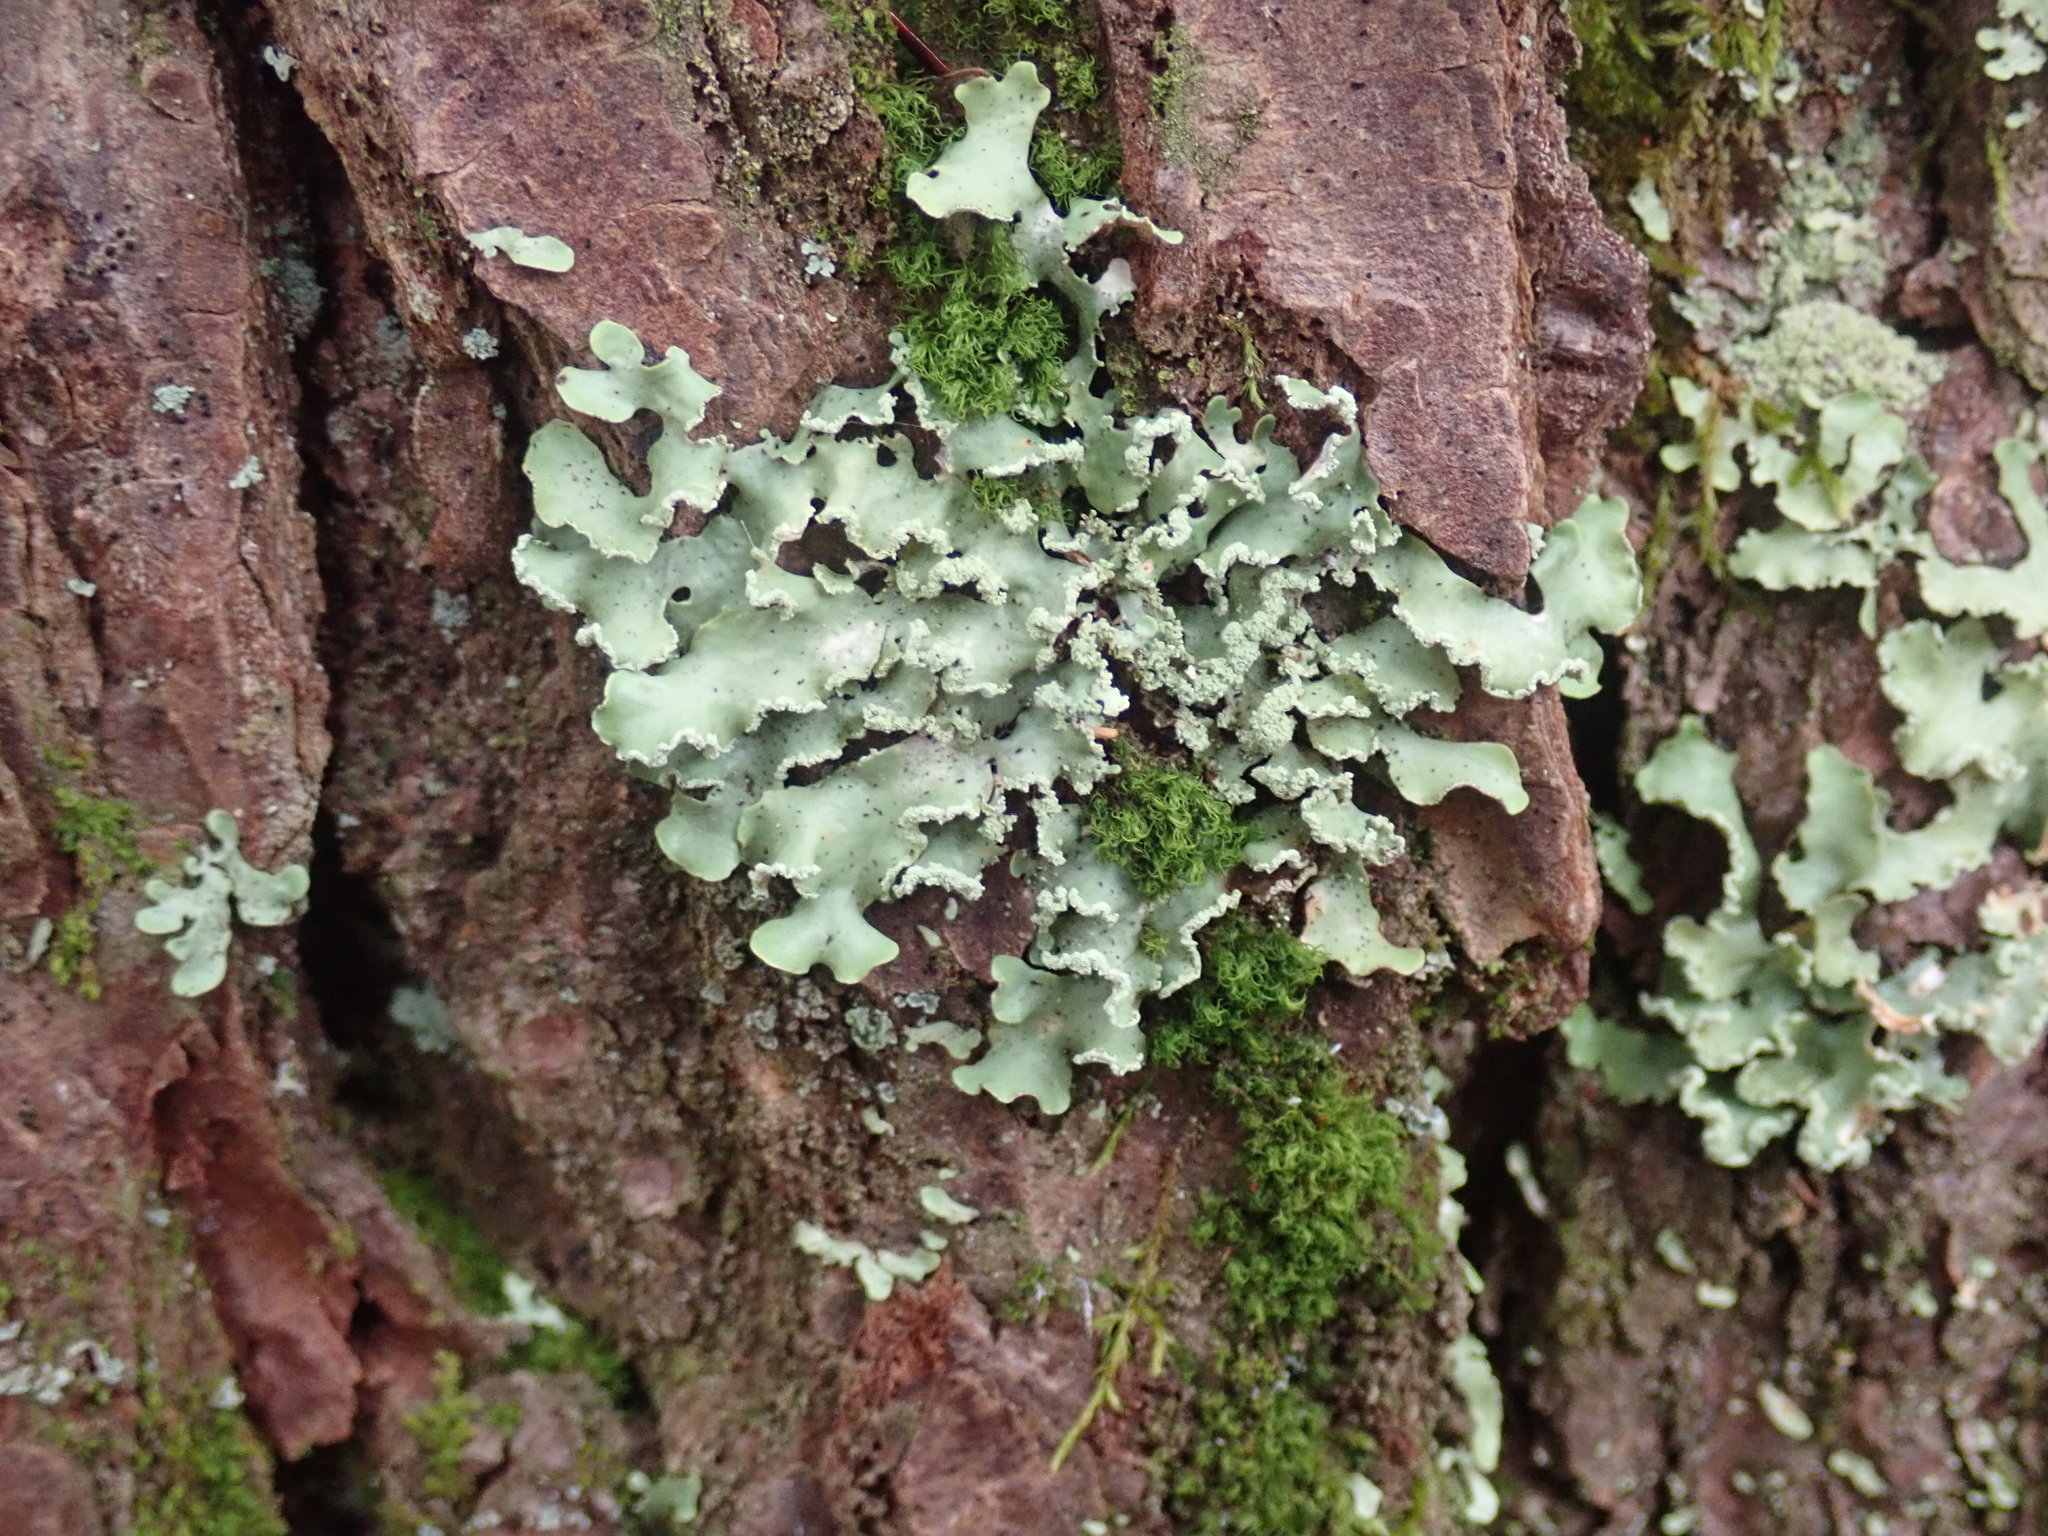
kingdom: Fungi
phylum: Ascomycota
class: Lecanoromycetes
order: Lecanorales
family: Parmeliaceae
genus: Usnocetraria
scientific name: Usnocetraria oakesiana
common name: Yellow ribbon lichen
